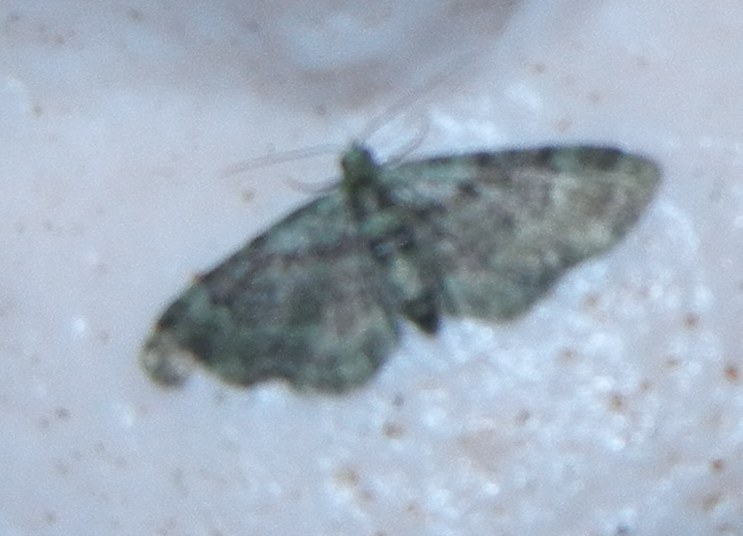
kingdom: Animalia
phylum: Arthropoda
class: Insecta
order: Lepidoptera
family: Geometridae
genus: Pasiphila
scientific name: Pasiphila rectangulata
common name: Green pug
